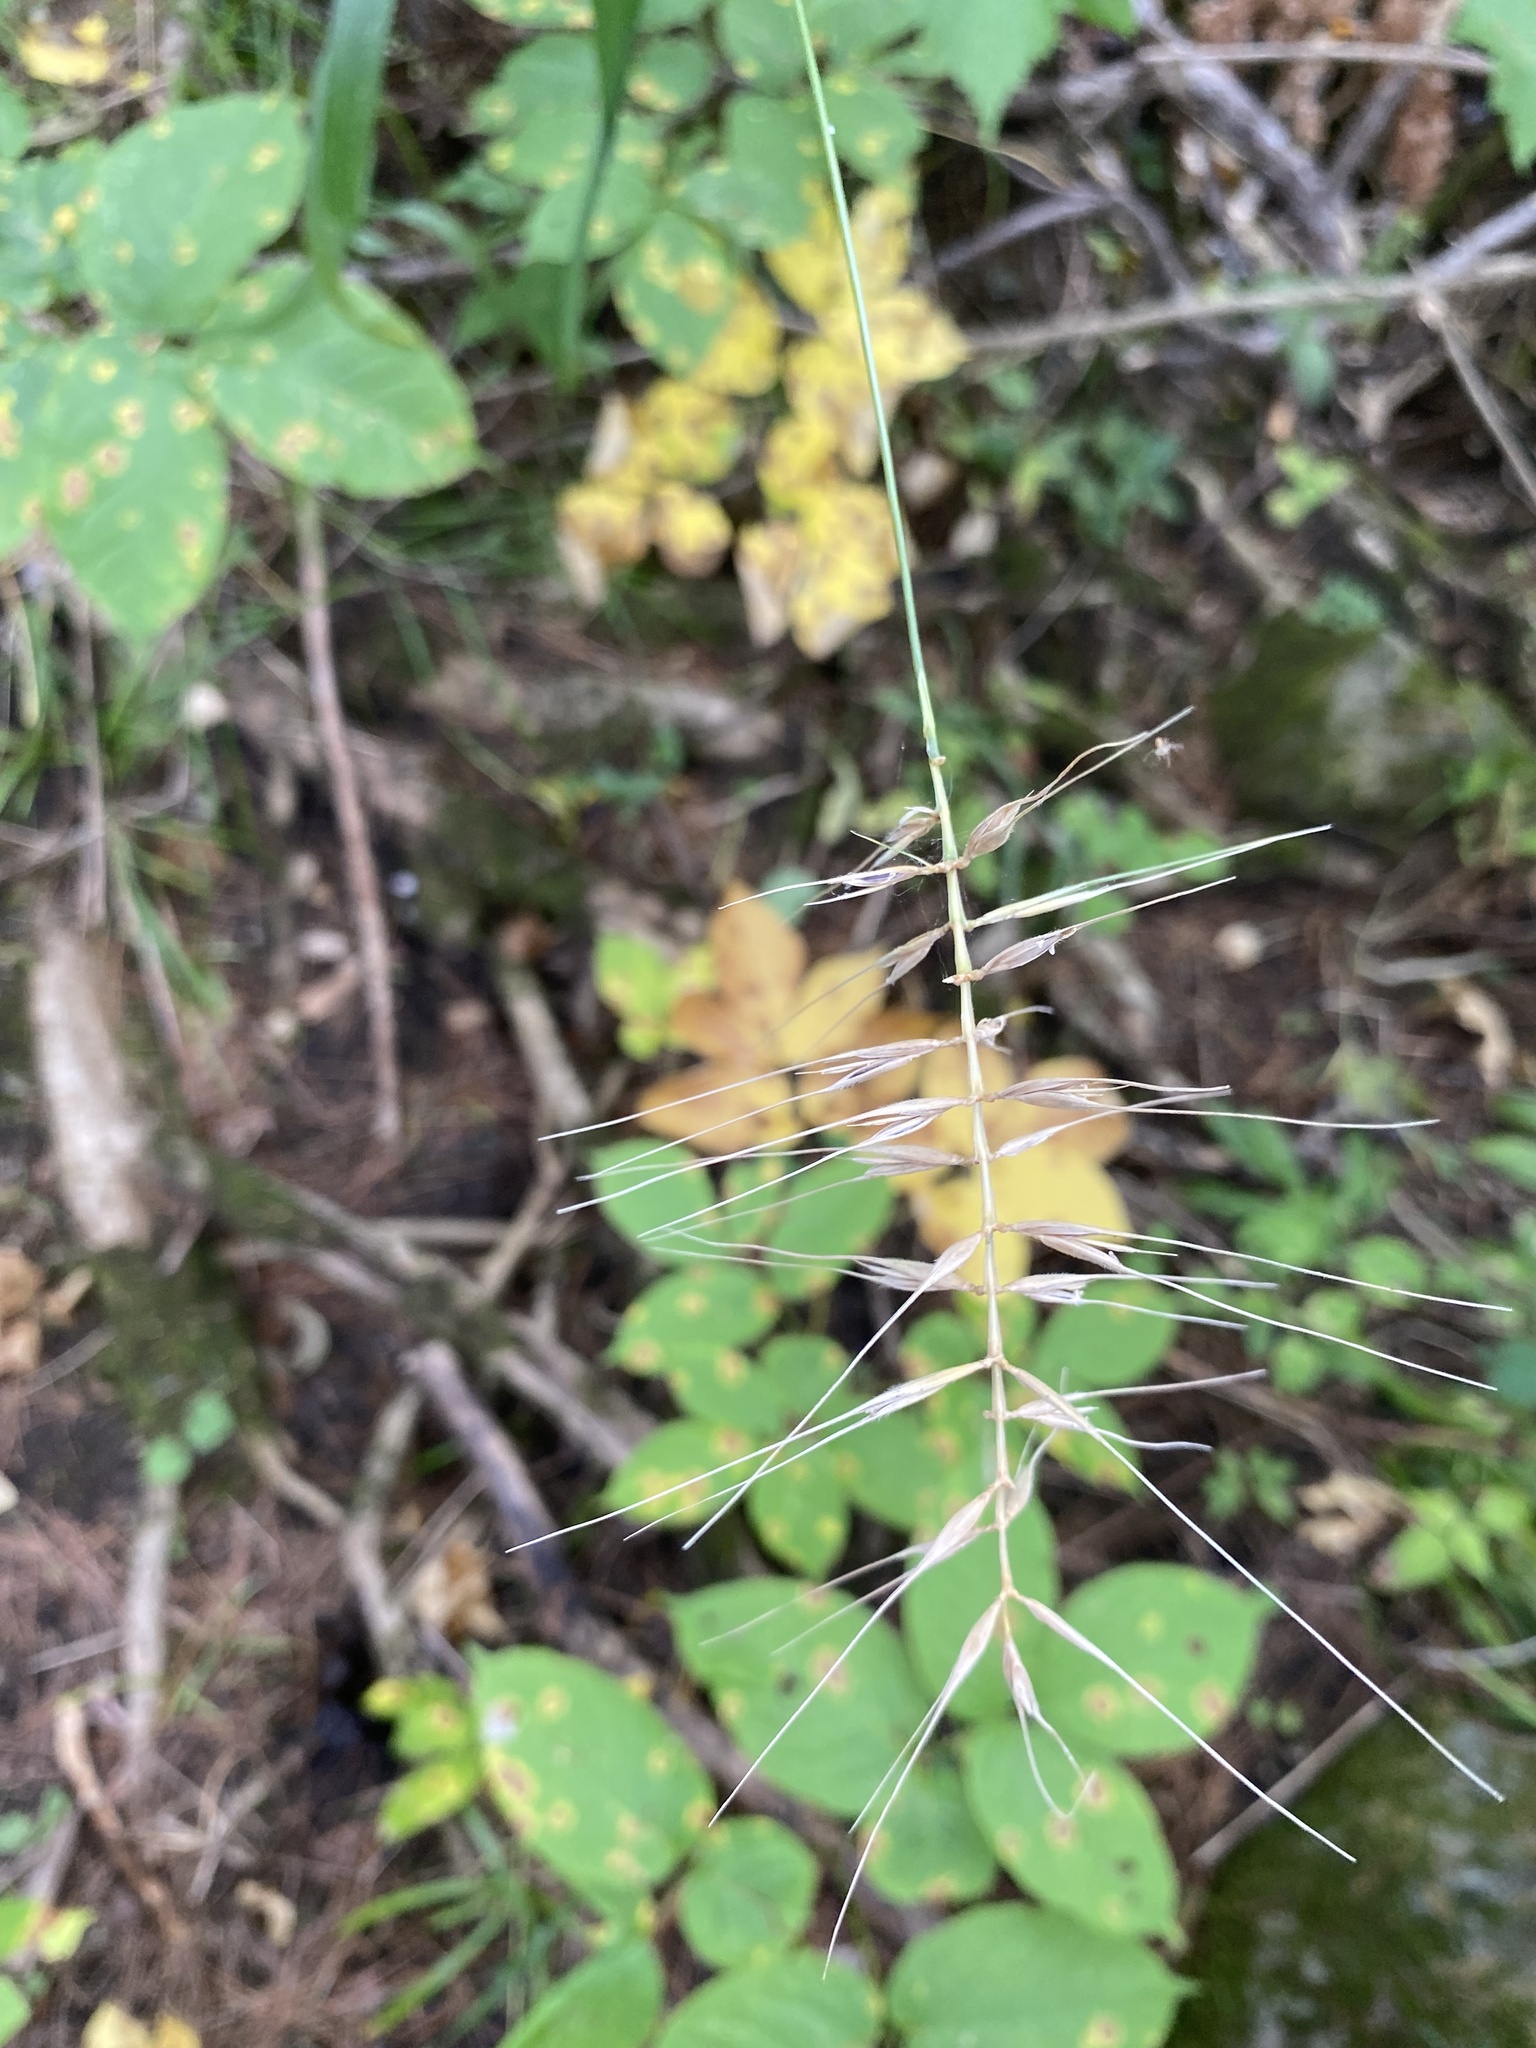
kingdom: Plantae
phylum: Tracheophyta
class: Liliopsida
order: Poales
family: Poaceae
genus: Elymus
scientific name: Elymus hystrix
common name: Bottlebrush grass
